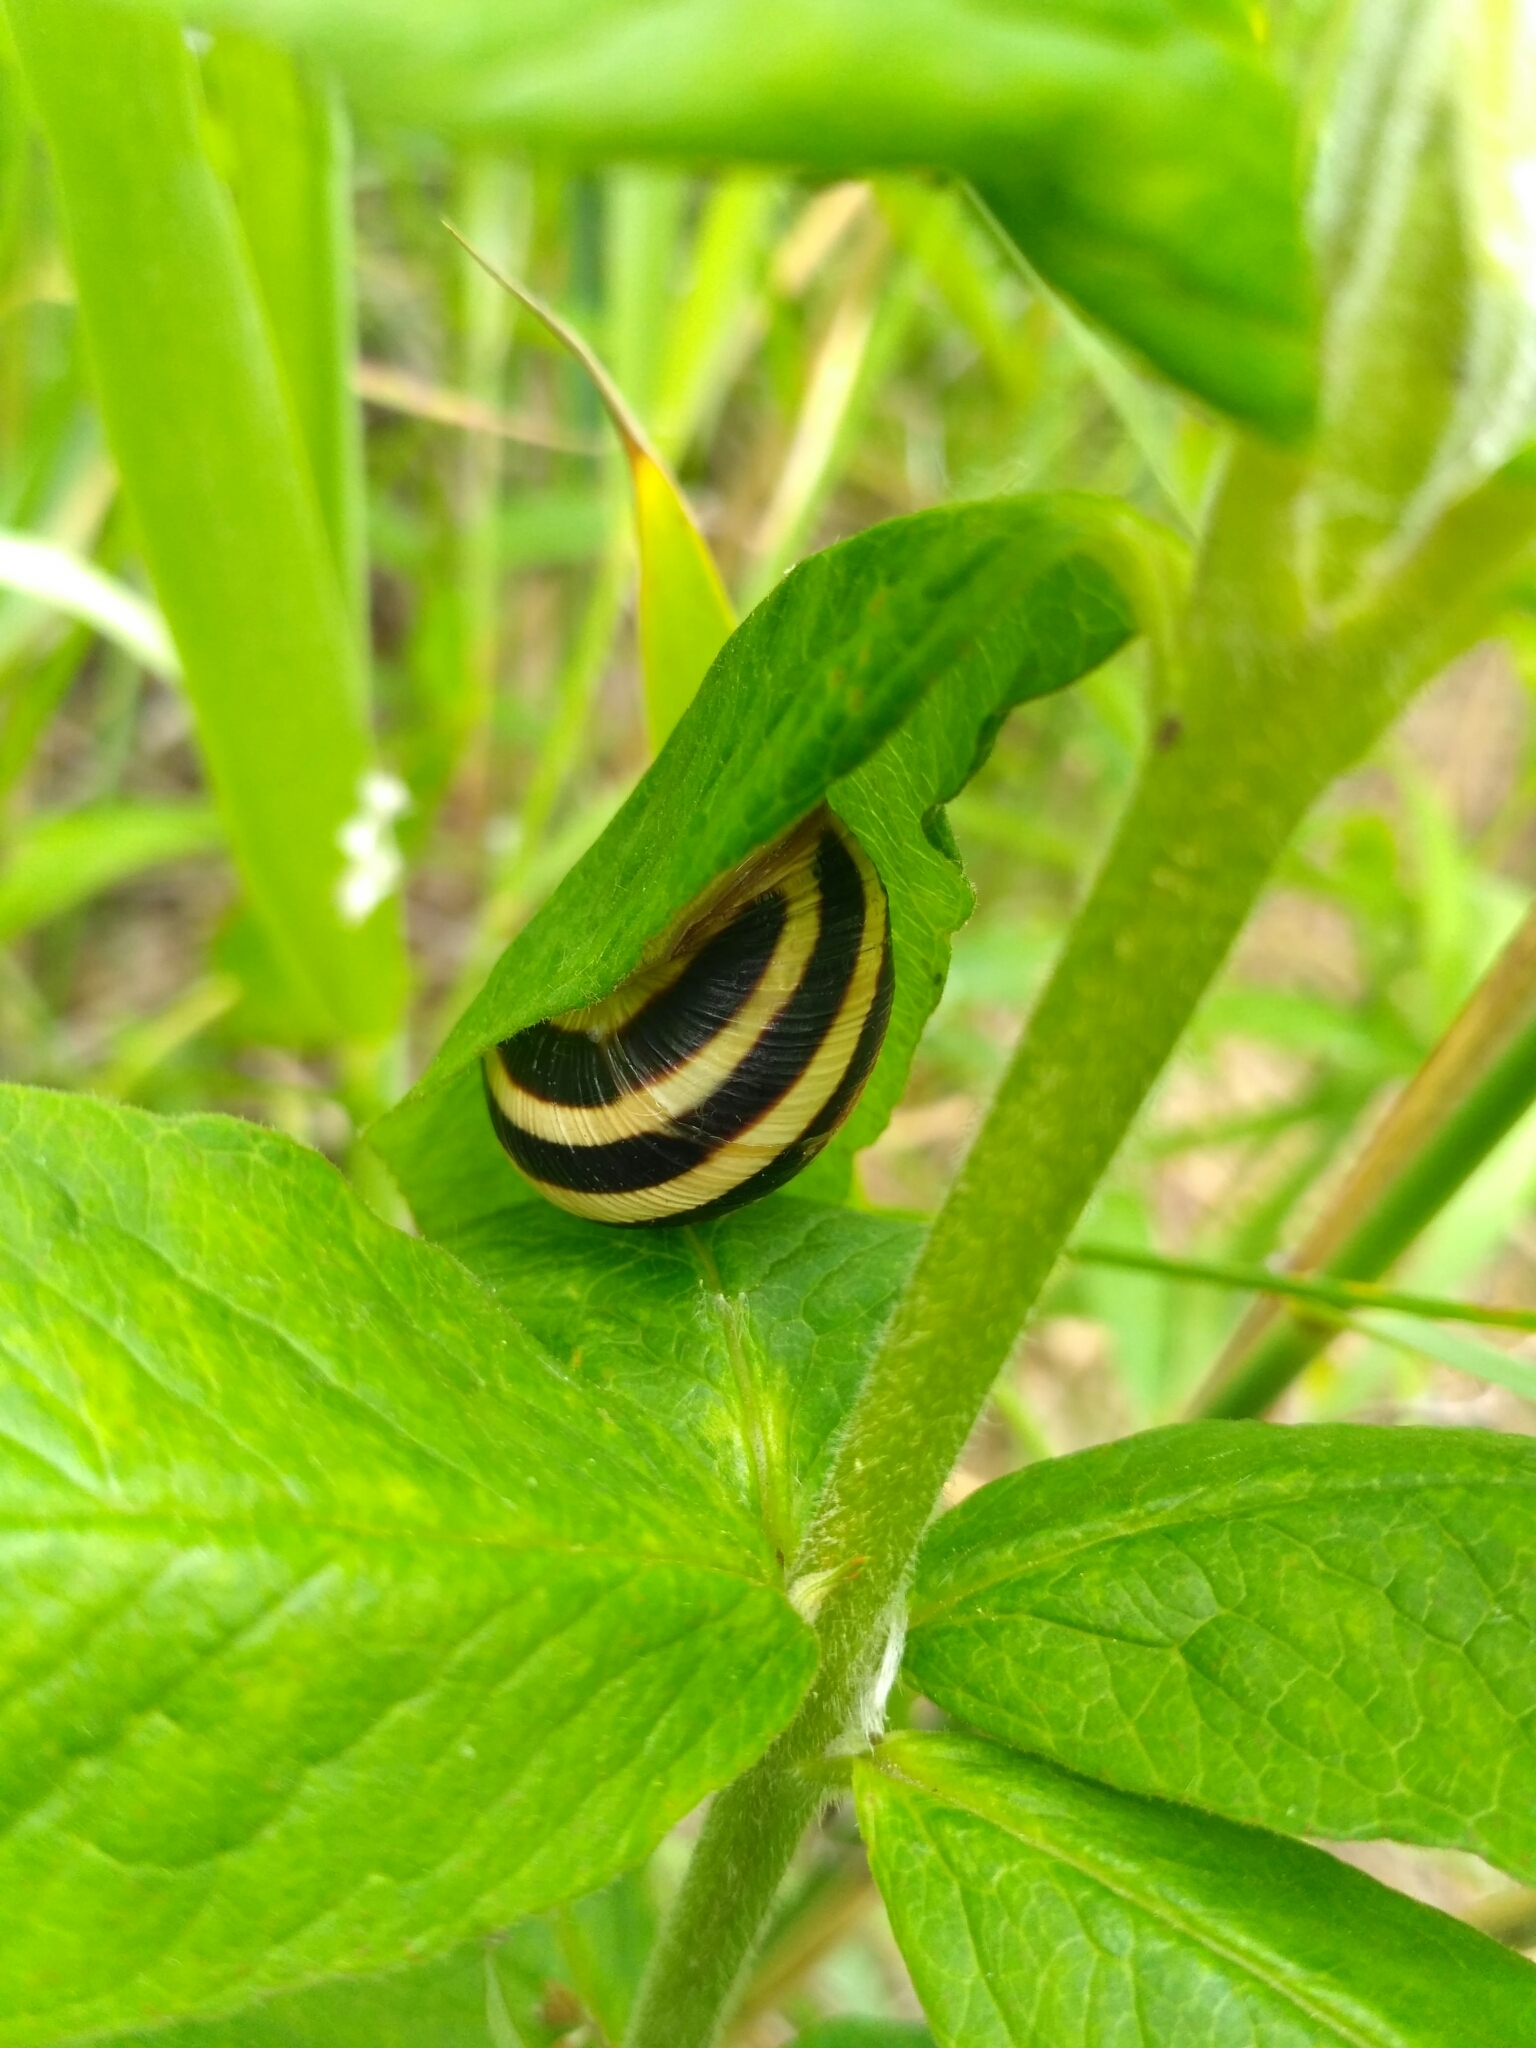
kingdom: Animalia
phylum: Mollusca
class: Gastropoda
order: Stylommatophora
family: Helicidae
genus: Caucasotachea
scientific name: Caucasotachea vindobonensis
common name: European helicid land snail
